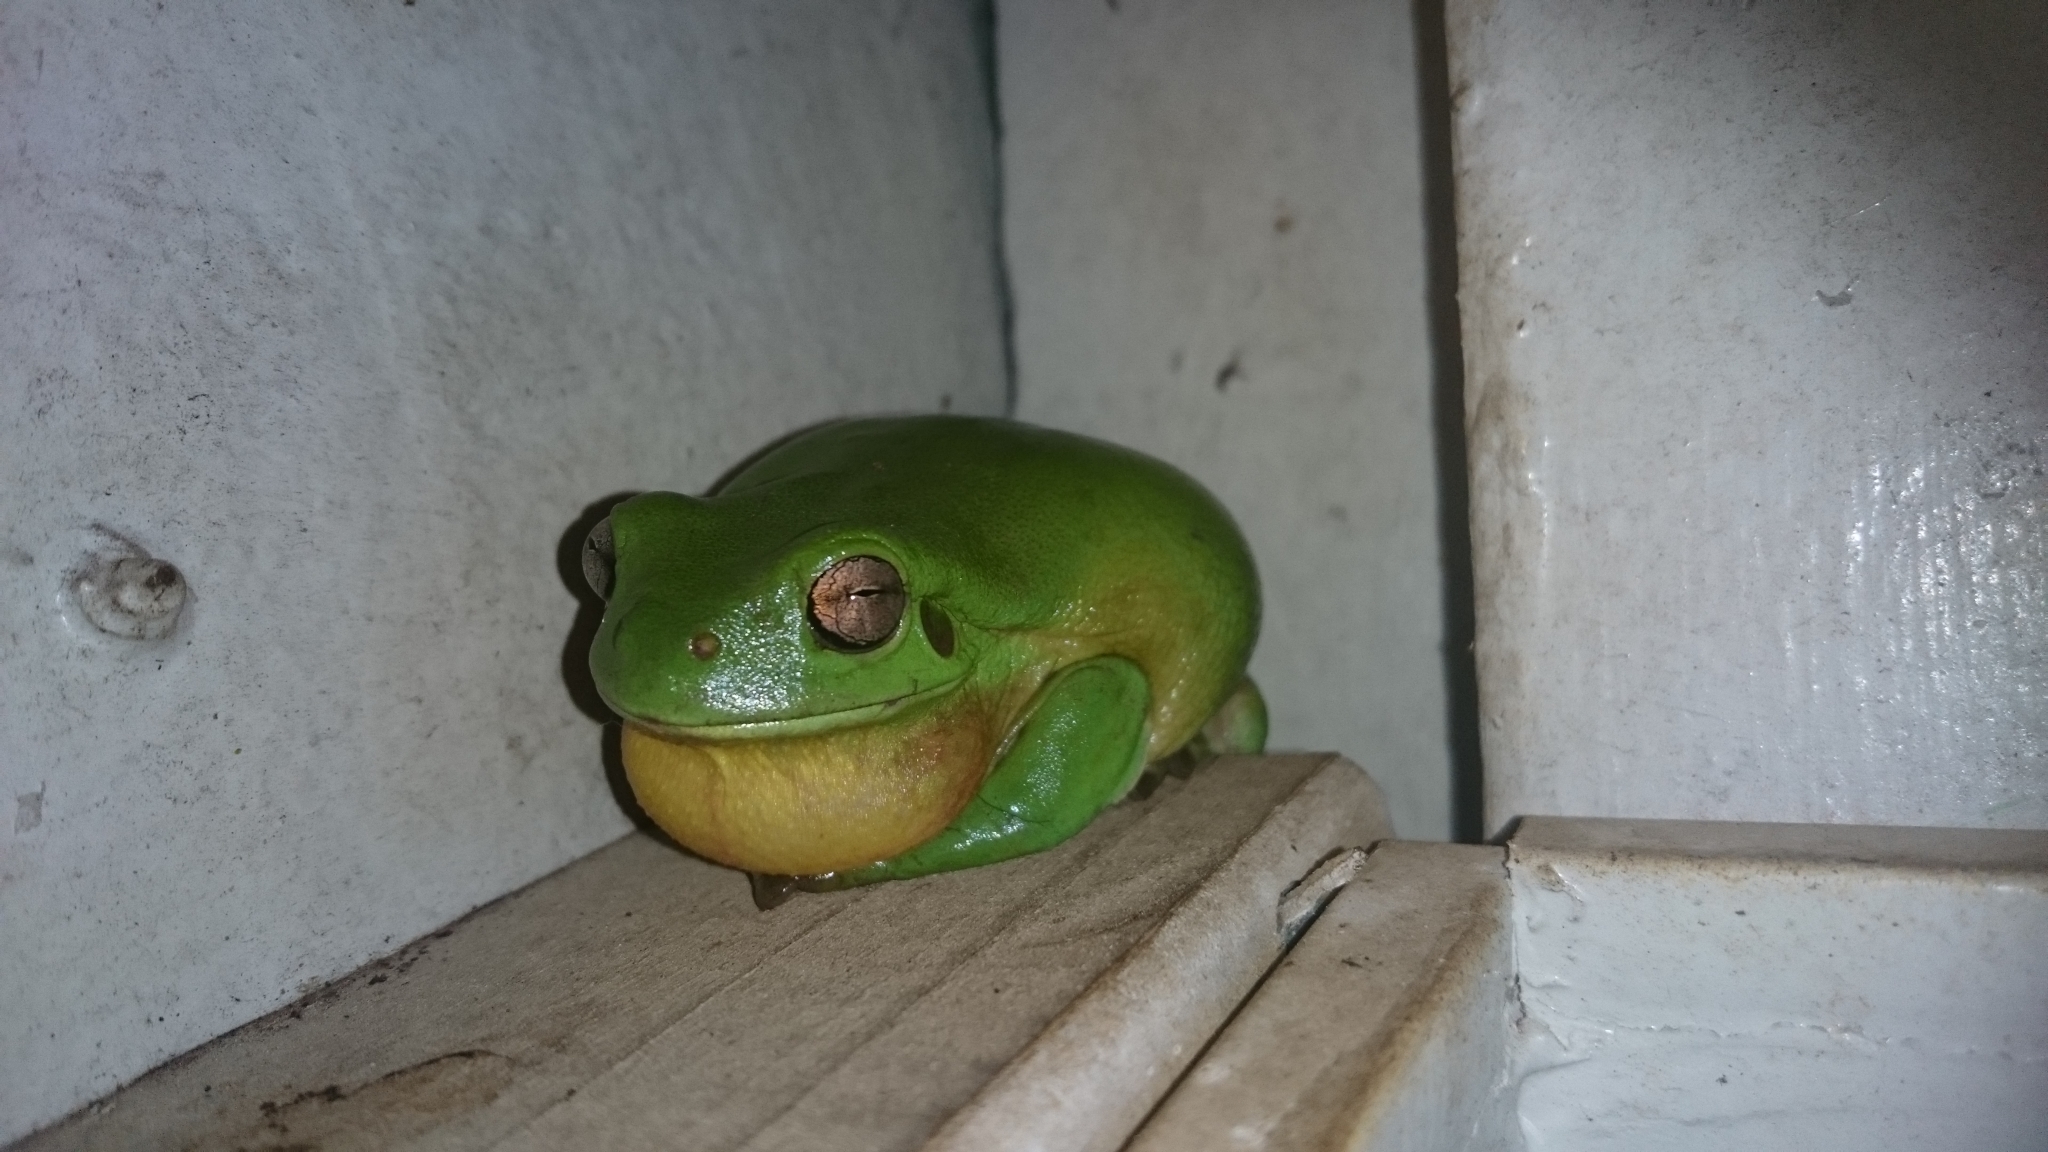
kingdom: Animalia
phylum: Chordata
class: Amphibia
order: Anura
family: Pelodryadidae
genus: Ranoidea
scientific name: Ranoidea caerulea
